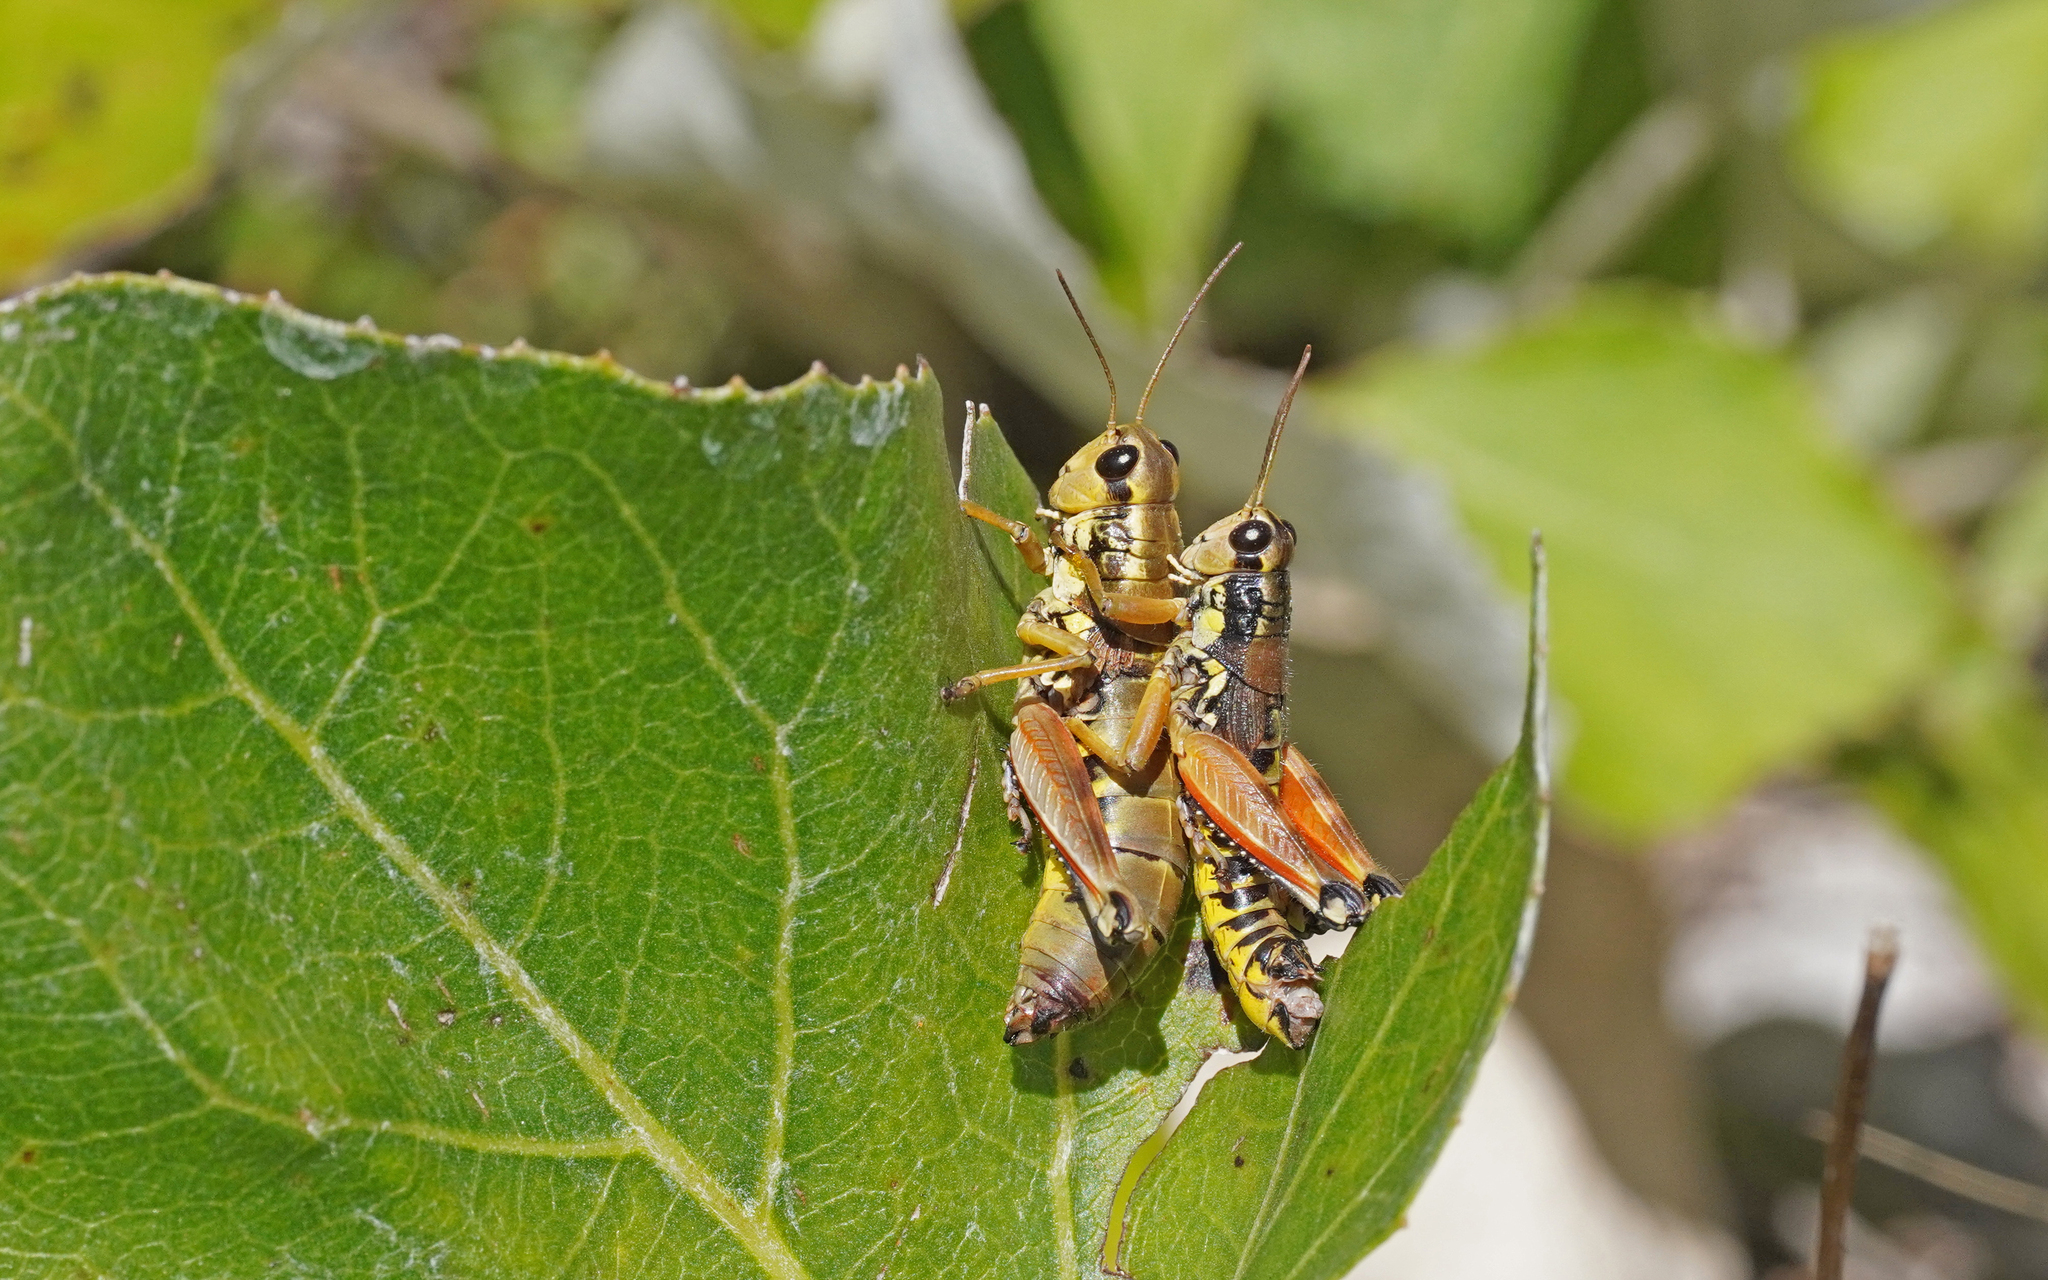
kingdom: Animalia
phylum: Arthropoda
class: Insecta
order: Orthoptera
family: Acrididae
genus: Podisma
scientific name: Podisma pedestris
